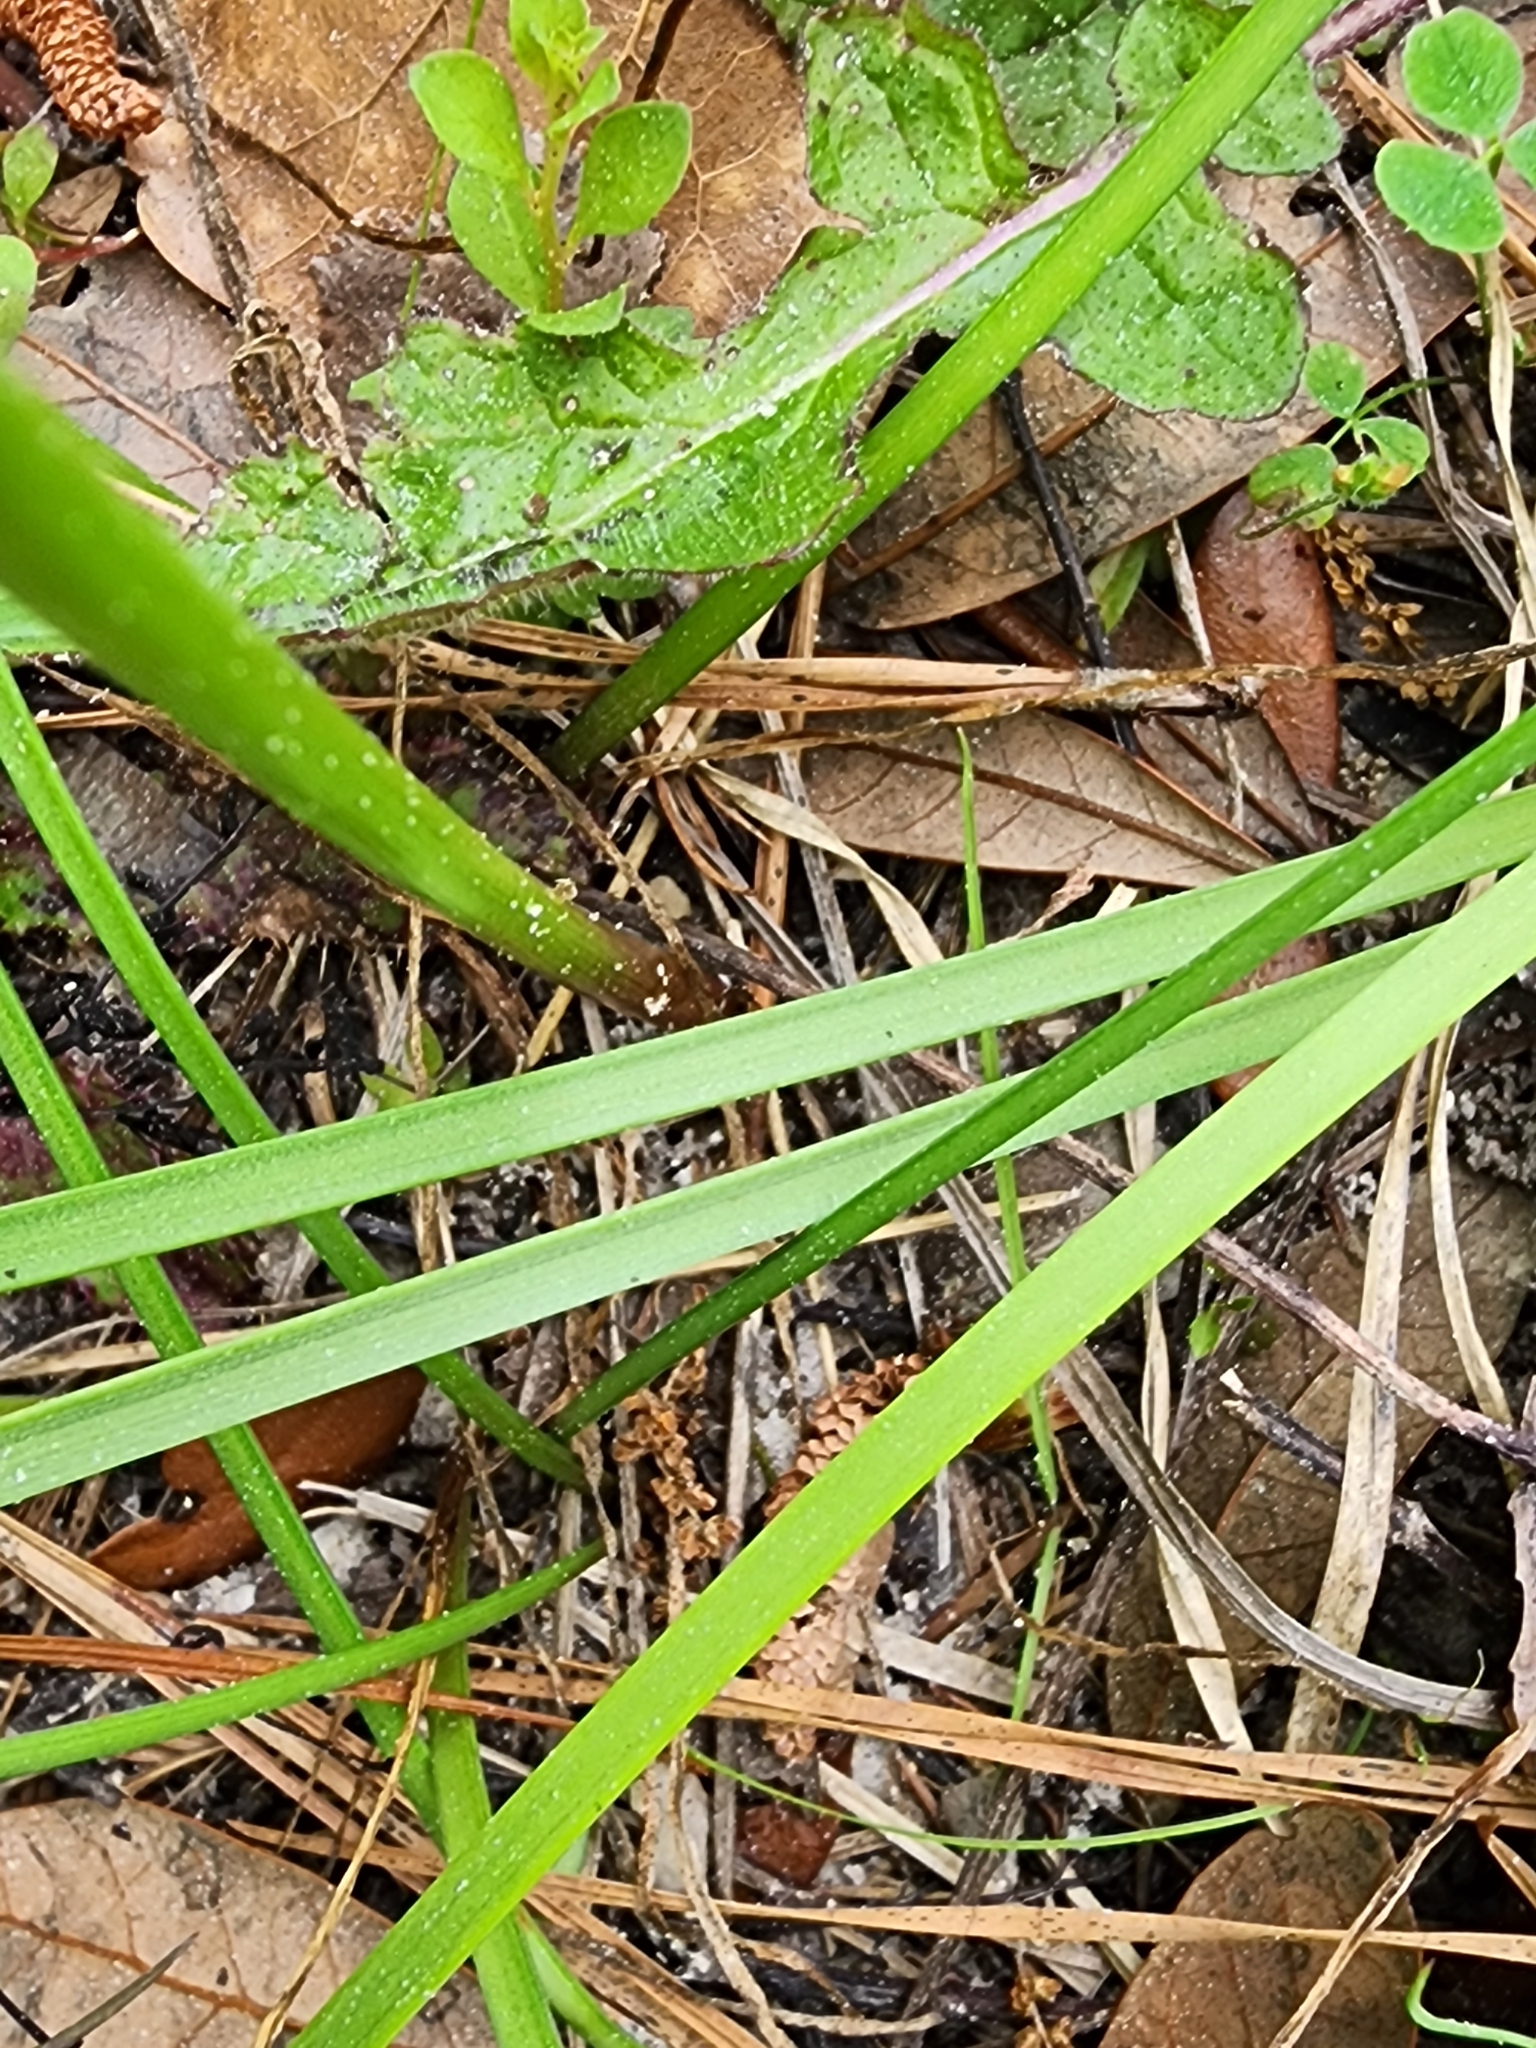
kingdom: Plantae
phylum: Tracheophyta
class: Liliopsida
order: Asparagales
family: Amaryllidaceae
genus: Zephyranthes
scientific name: Zephyranthes atamasco
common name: Atamasco lily
